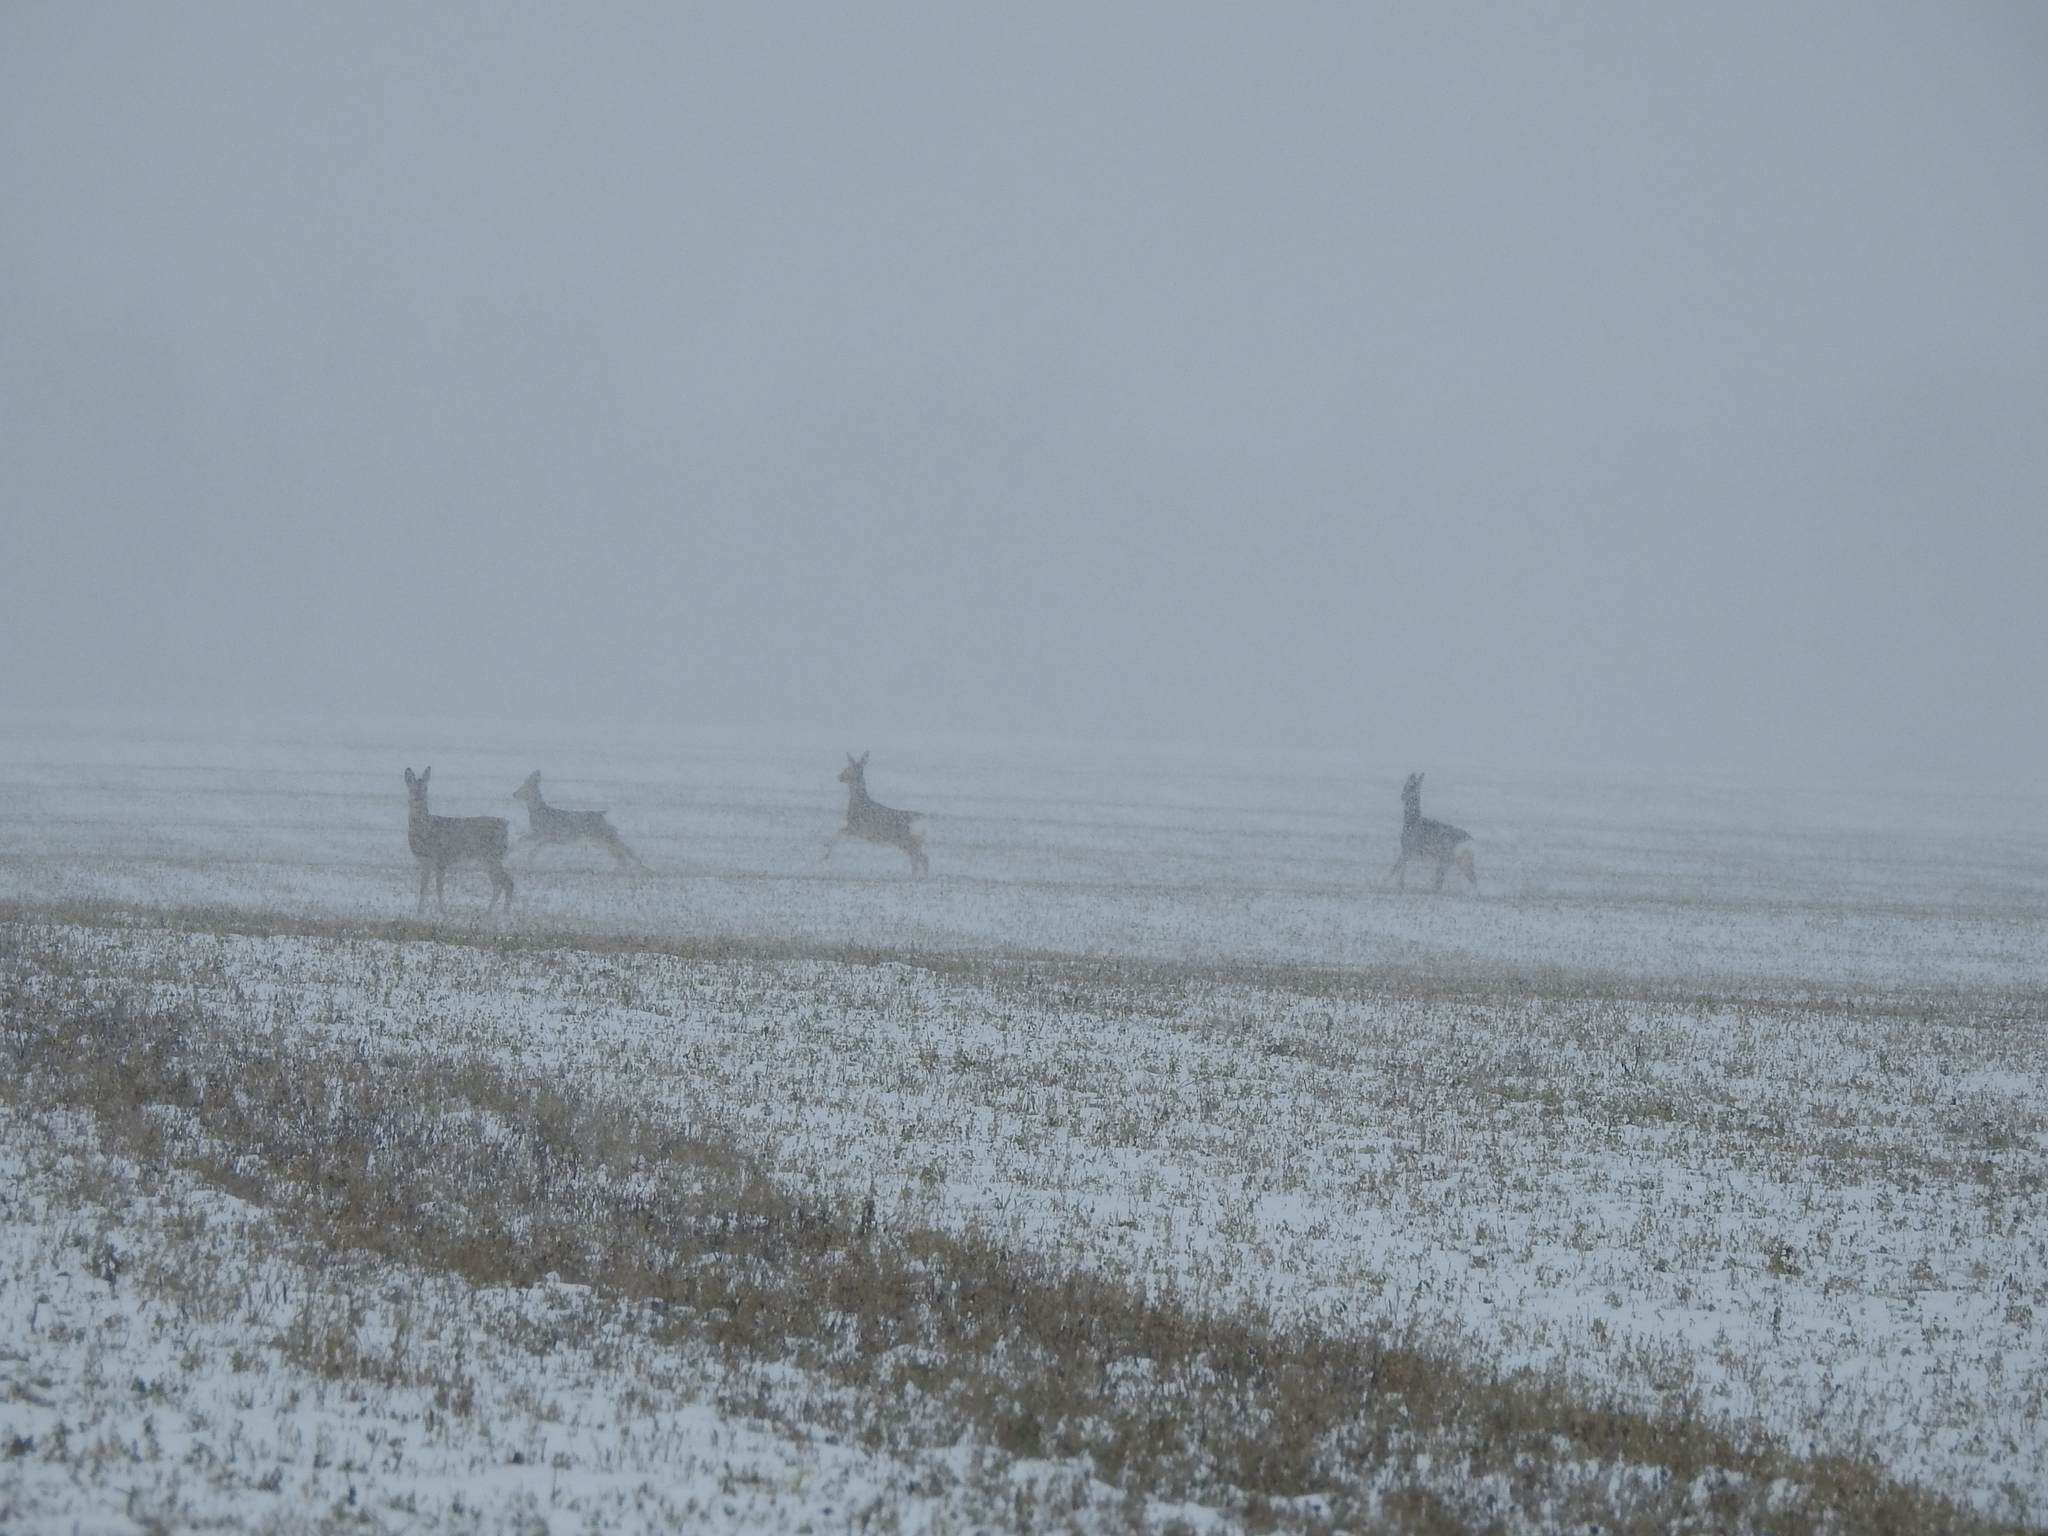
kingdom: Animalia
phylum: Chordata
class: Mammalia
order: Artiodactyla
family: Cervidae
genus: Capreolus
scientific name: Capreolus pygargus
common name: Siberian roe
